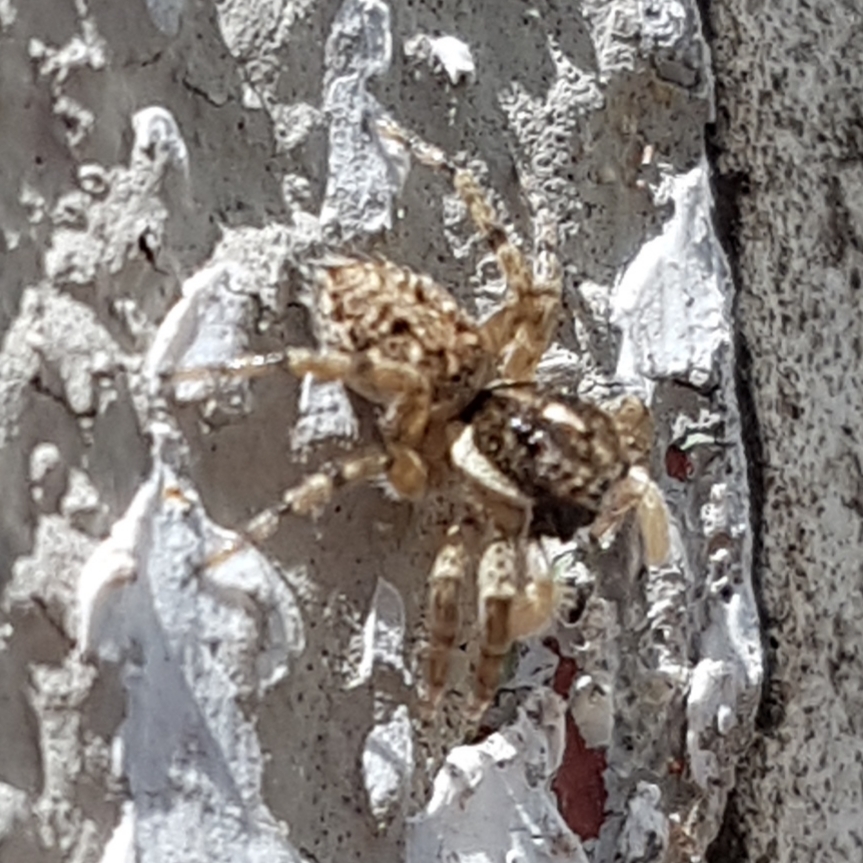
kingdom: Animalia
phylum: Arthropoda
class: Arachnida
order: Araneae
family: Salticidae
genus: Menemerus
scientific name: Menemerus semilimbatus
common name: Jumping spider
